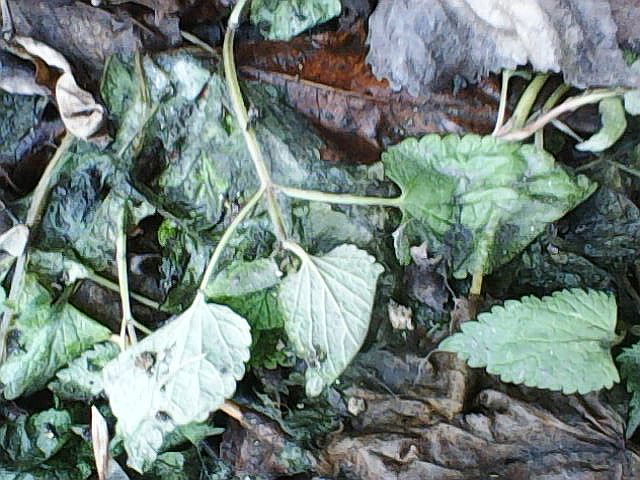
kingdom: Plantae
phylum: Tracheophyta
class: Magnoliopsida
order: Lamiales
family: Lamiaceae
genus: Lamium
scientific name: Lamium album
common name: White dead-nettle
